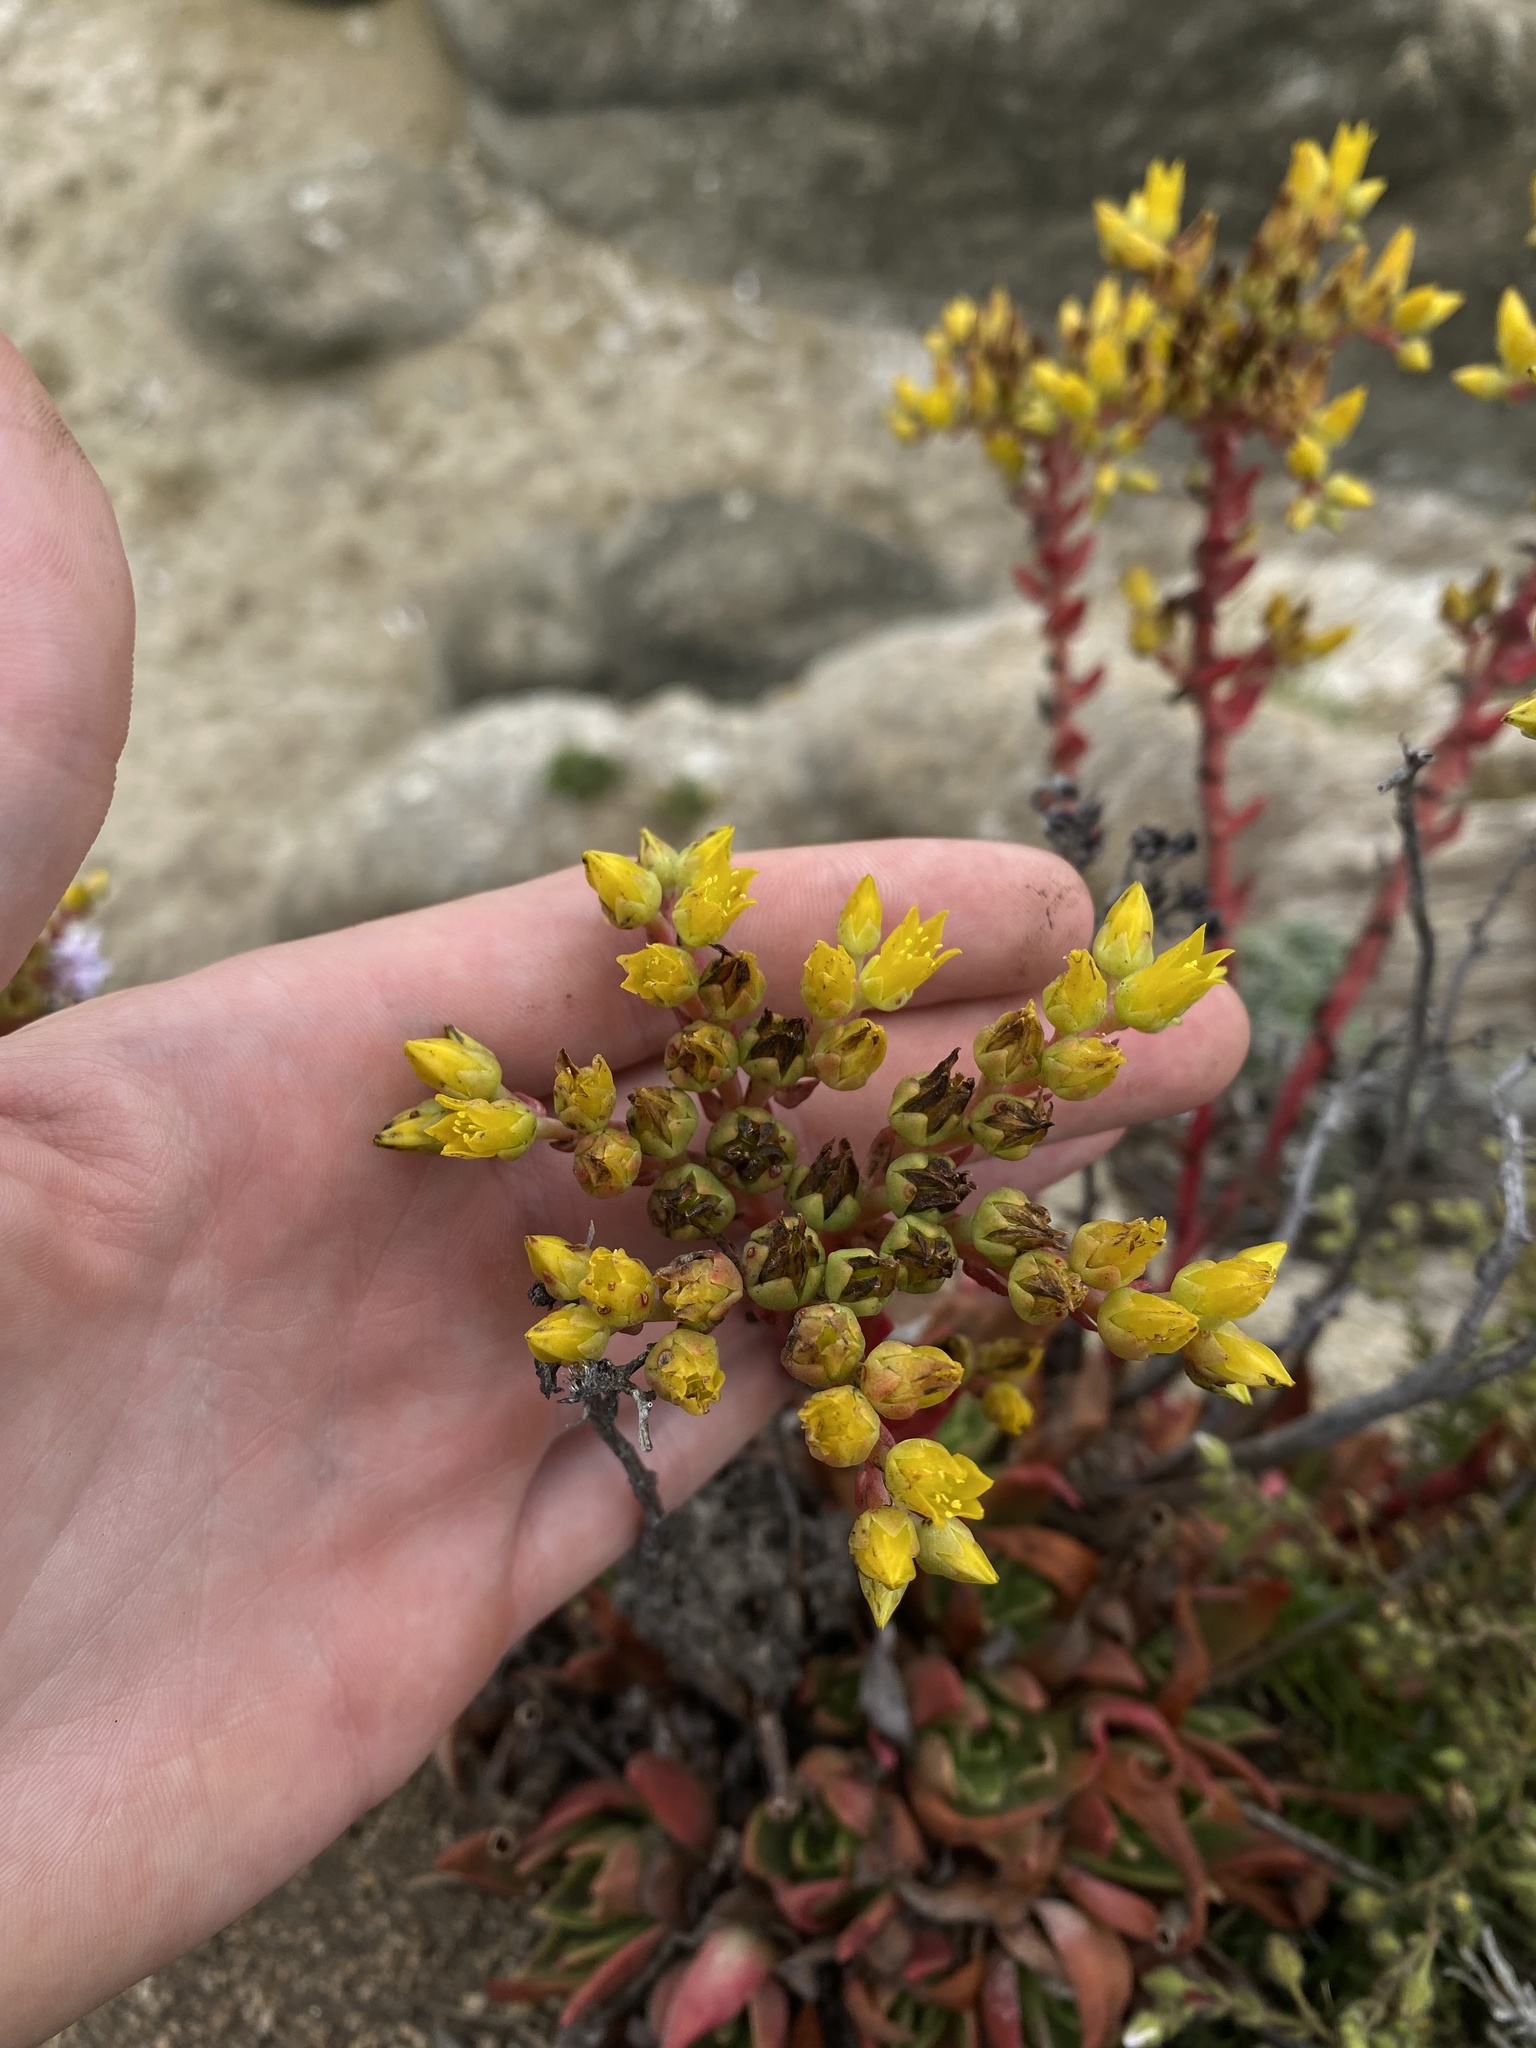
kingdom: Plantae
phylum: Tracheophyta
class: Magnoliopsida
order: Saxifragales
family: Crassulaceae
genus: Dudleya
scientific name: Dudleya caespitosa
